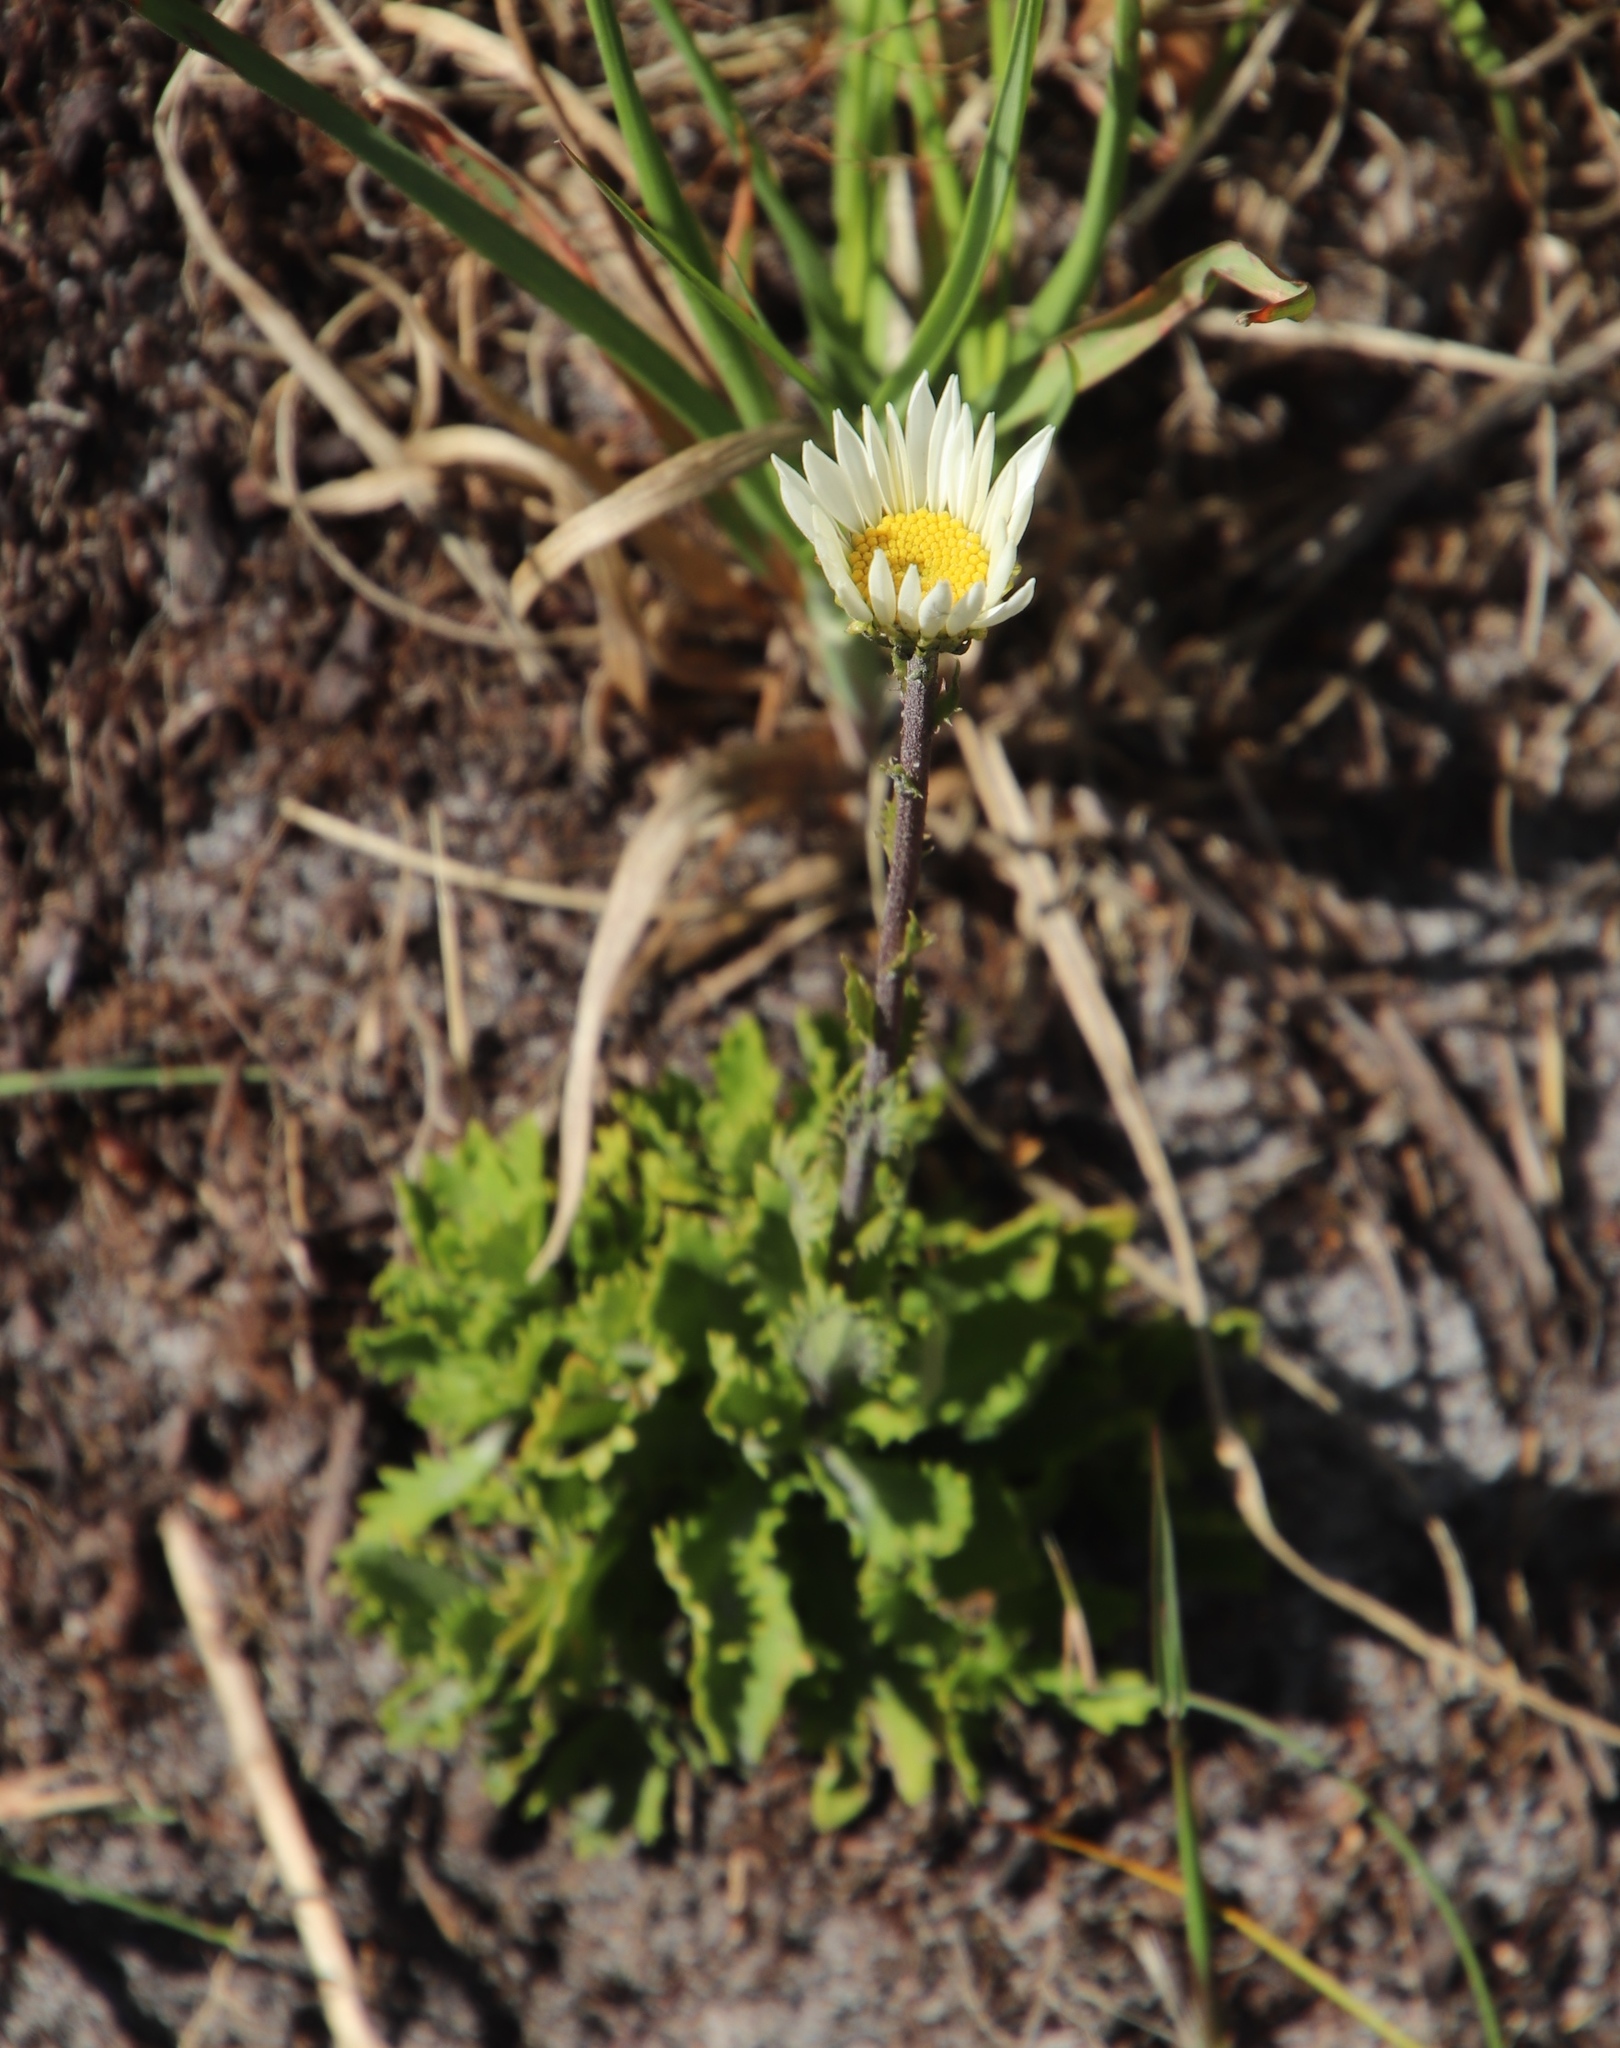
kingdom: Plantae
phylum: Tracheophyta
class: Magnoliopsida
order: Asterales
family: Asteraceae
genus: Osmitopsis
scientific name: Osmitopsis dentata
